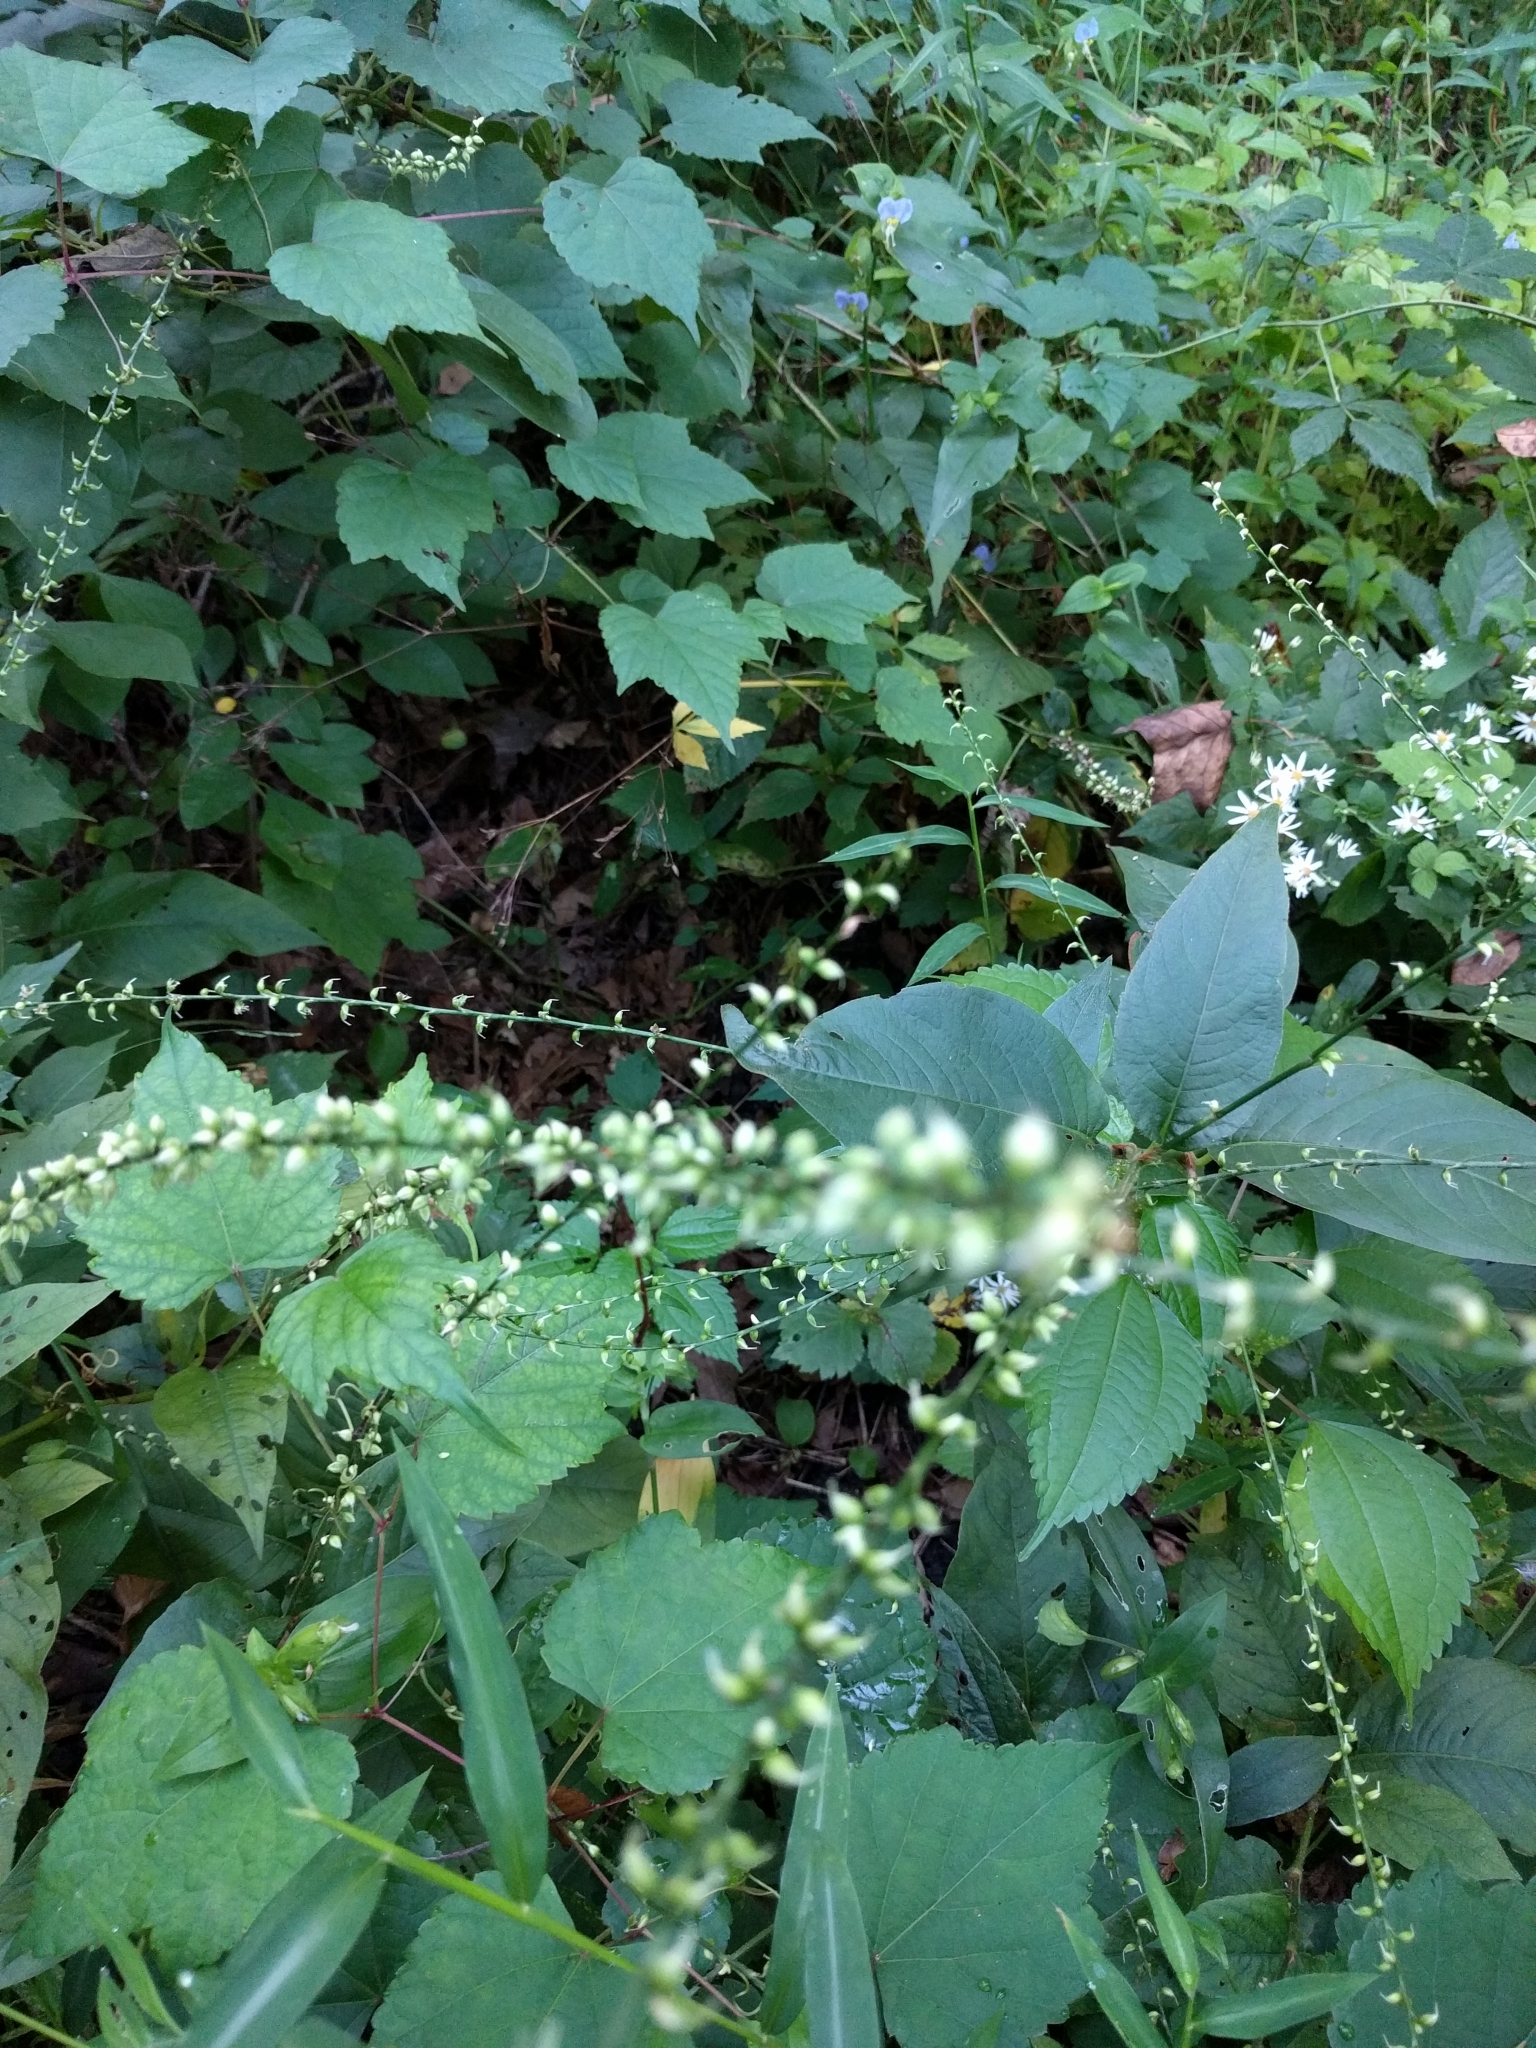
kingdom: Plantae
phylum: Tracheophyta
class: Magnoliopsida
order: Caryophyllales
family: Polygonaceae
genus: Persicaria
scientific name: Persicaria virginiana
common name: Jumpseed
